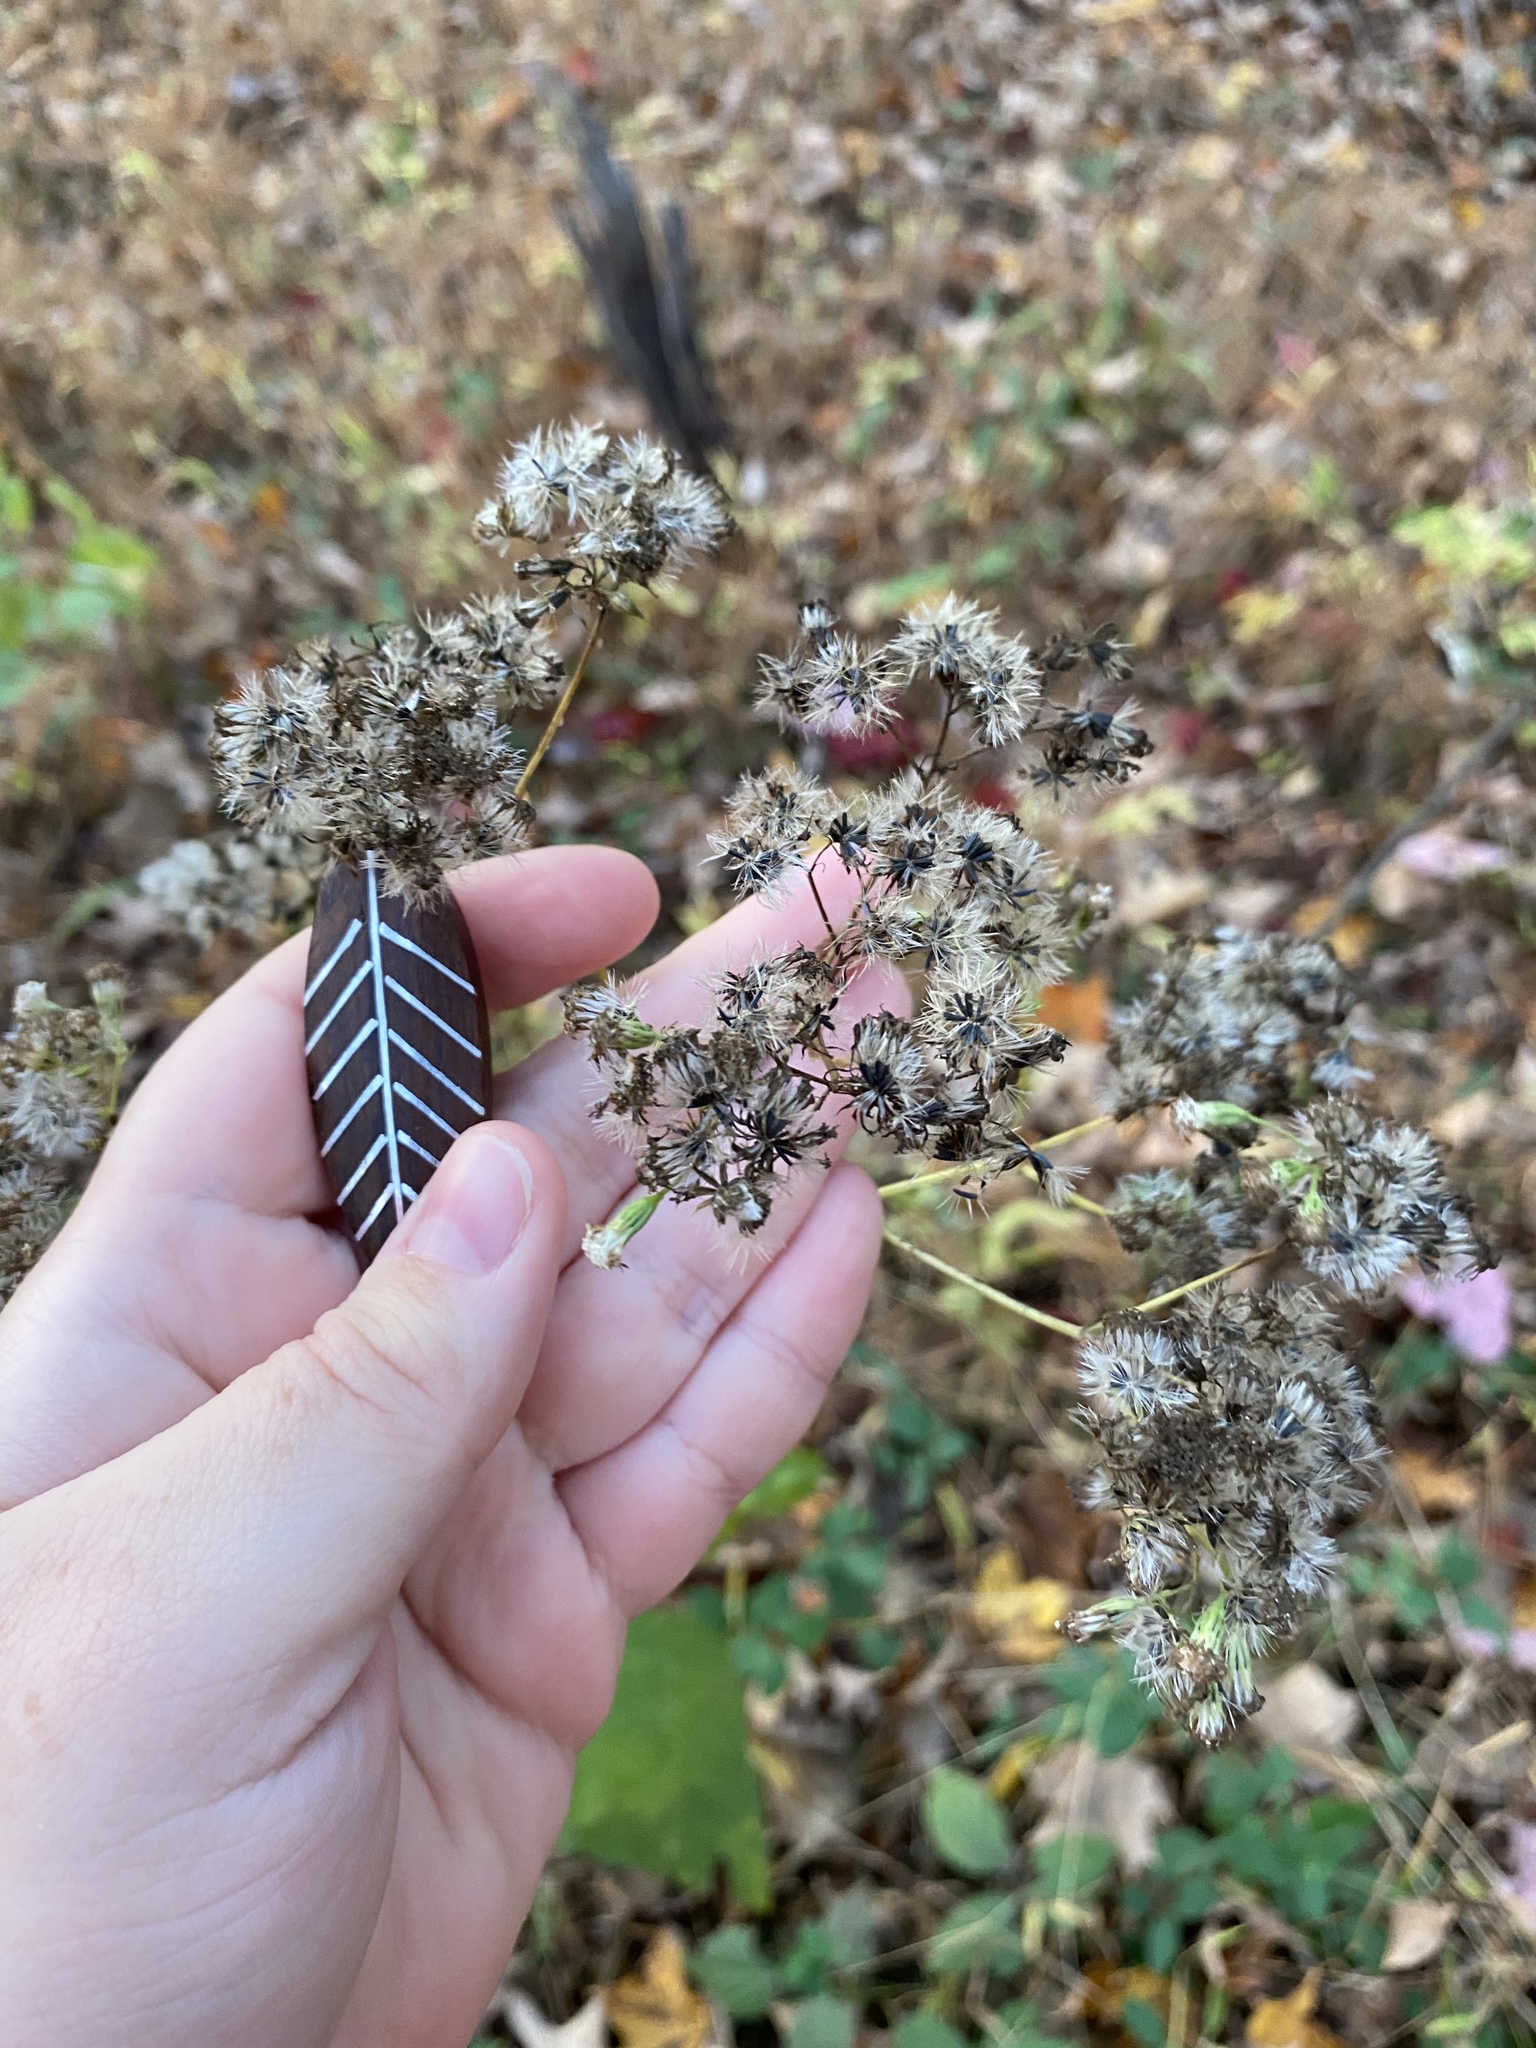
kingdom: Plantae
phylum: Tracheophyta
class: Magnoliopsida
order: Asterales
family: Asteraceae
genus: Ageratina
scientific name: Ageratina altissima
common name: White snakeroot
